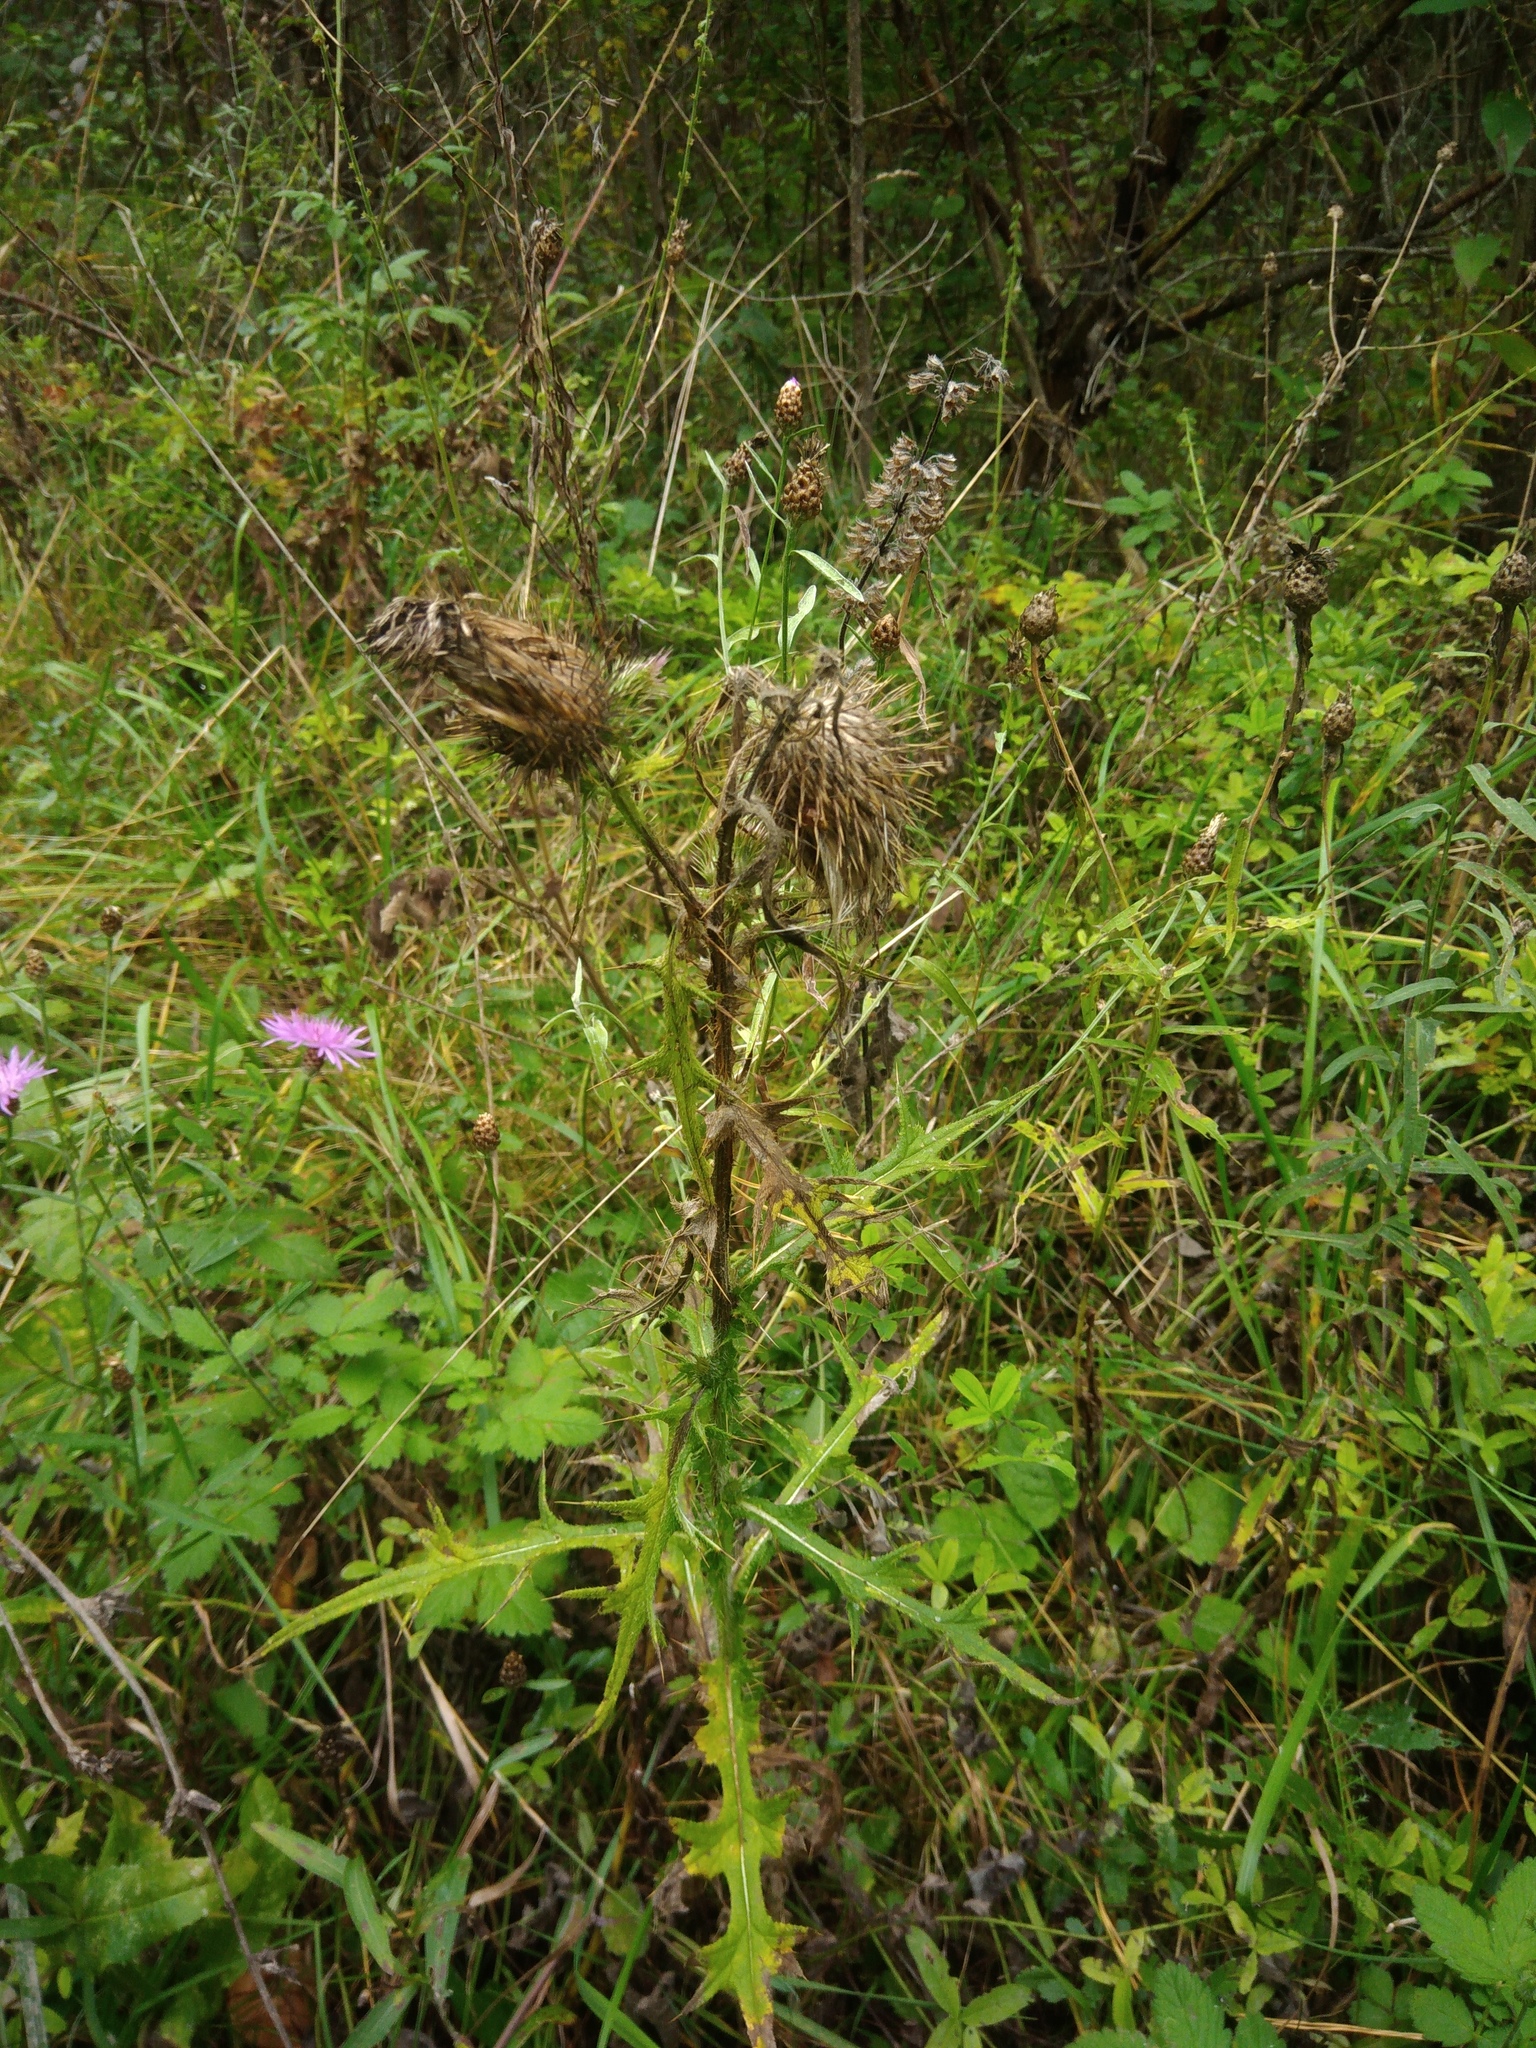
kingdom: Plantae
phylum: Tracheophyta
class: Magnoliopsida
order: Asterales
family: Asteraceae
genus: Cirsium
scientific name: Cirsium vulgare
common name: Bull thistle
